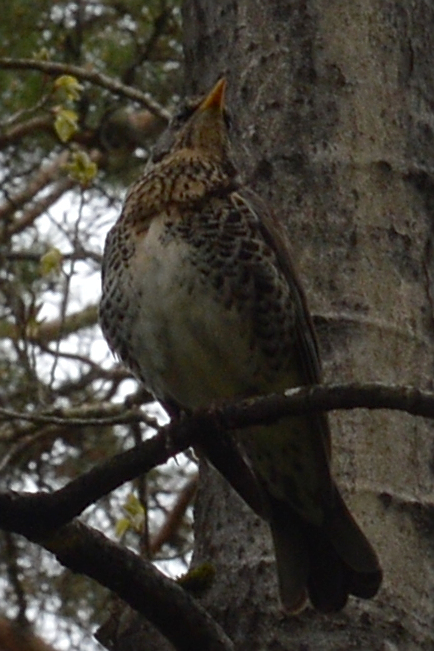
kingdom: Animalia
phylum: Chordata
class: Aves
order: Passeriformes
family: Turdidae
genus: Turdus
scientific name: Turdus pilaris
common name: Fieldfare
